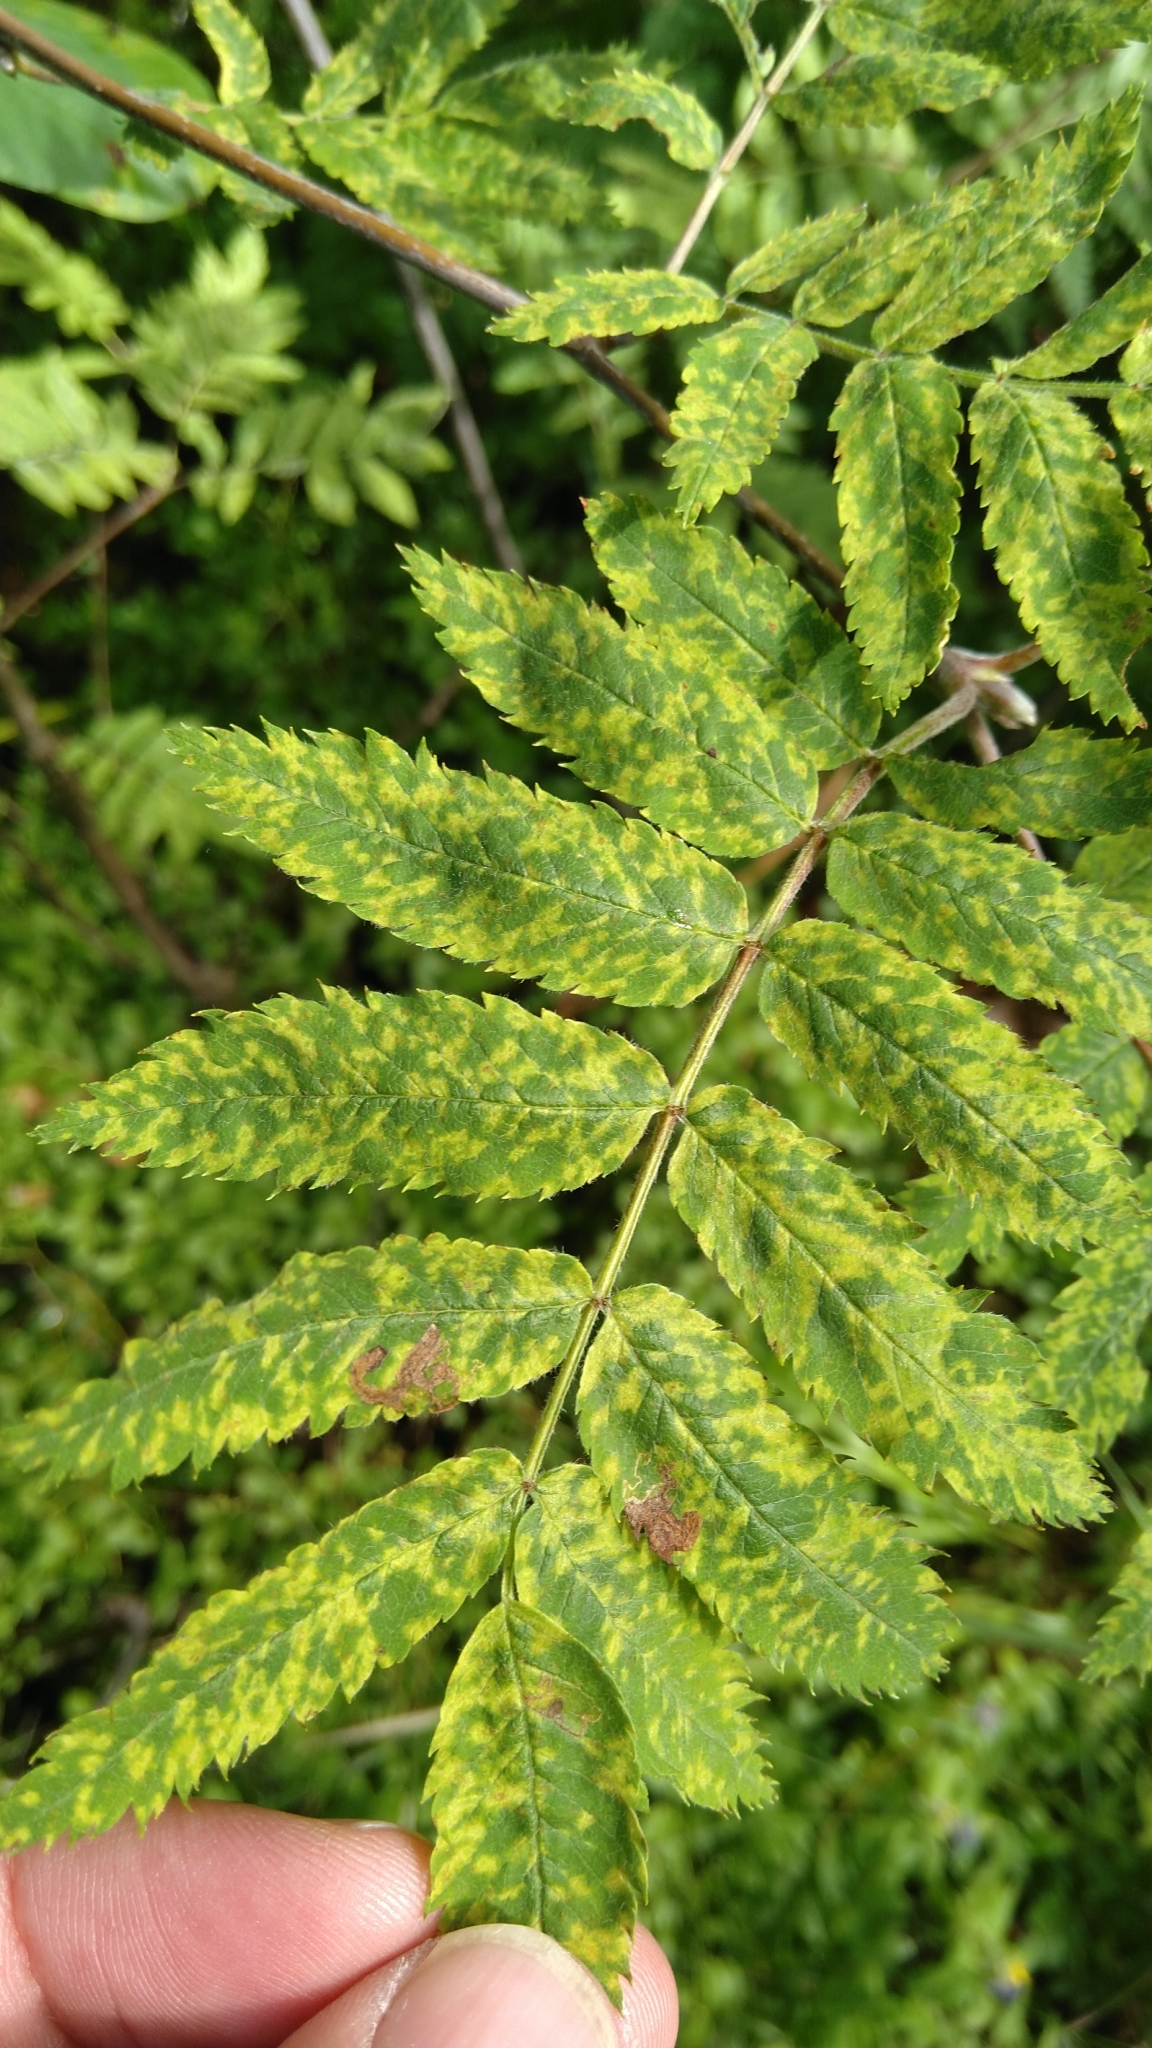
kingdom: Viruses
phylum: Negarnaviricota
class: Ellioviricetes
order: Bunyavirales
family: Fimoviridae
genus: Emaravirus
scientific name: Emaravirus sorbi
